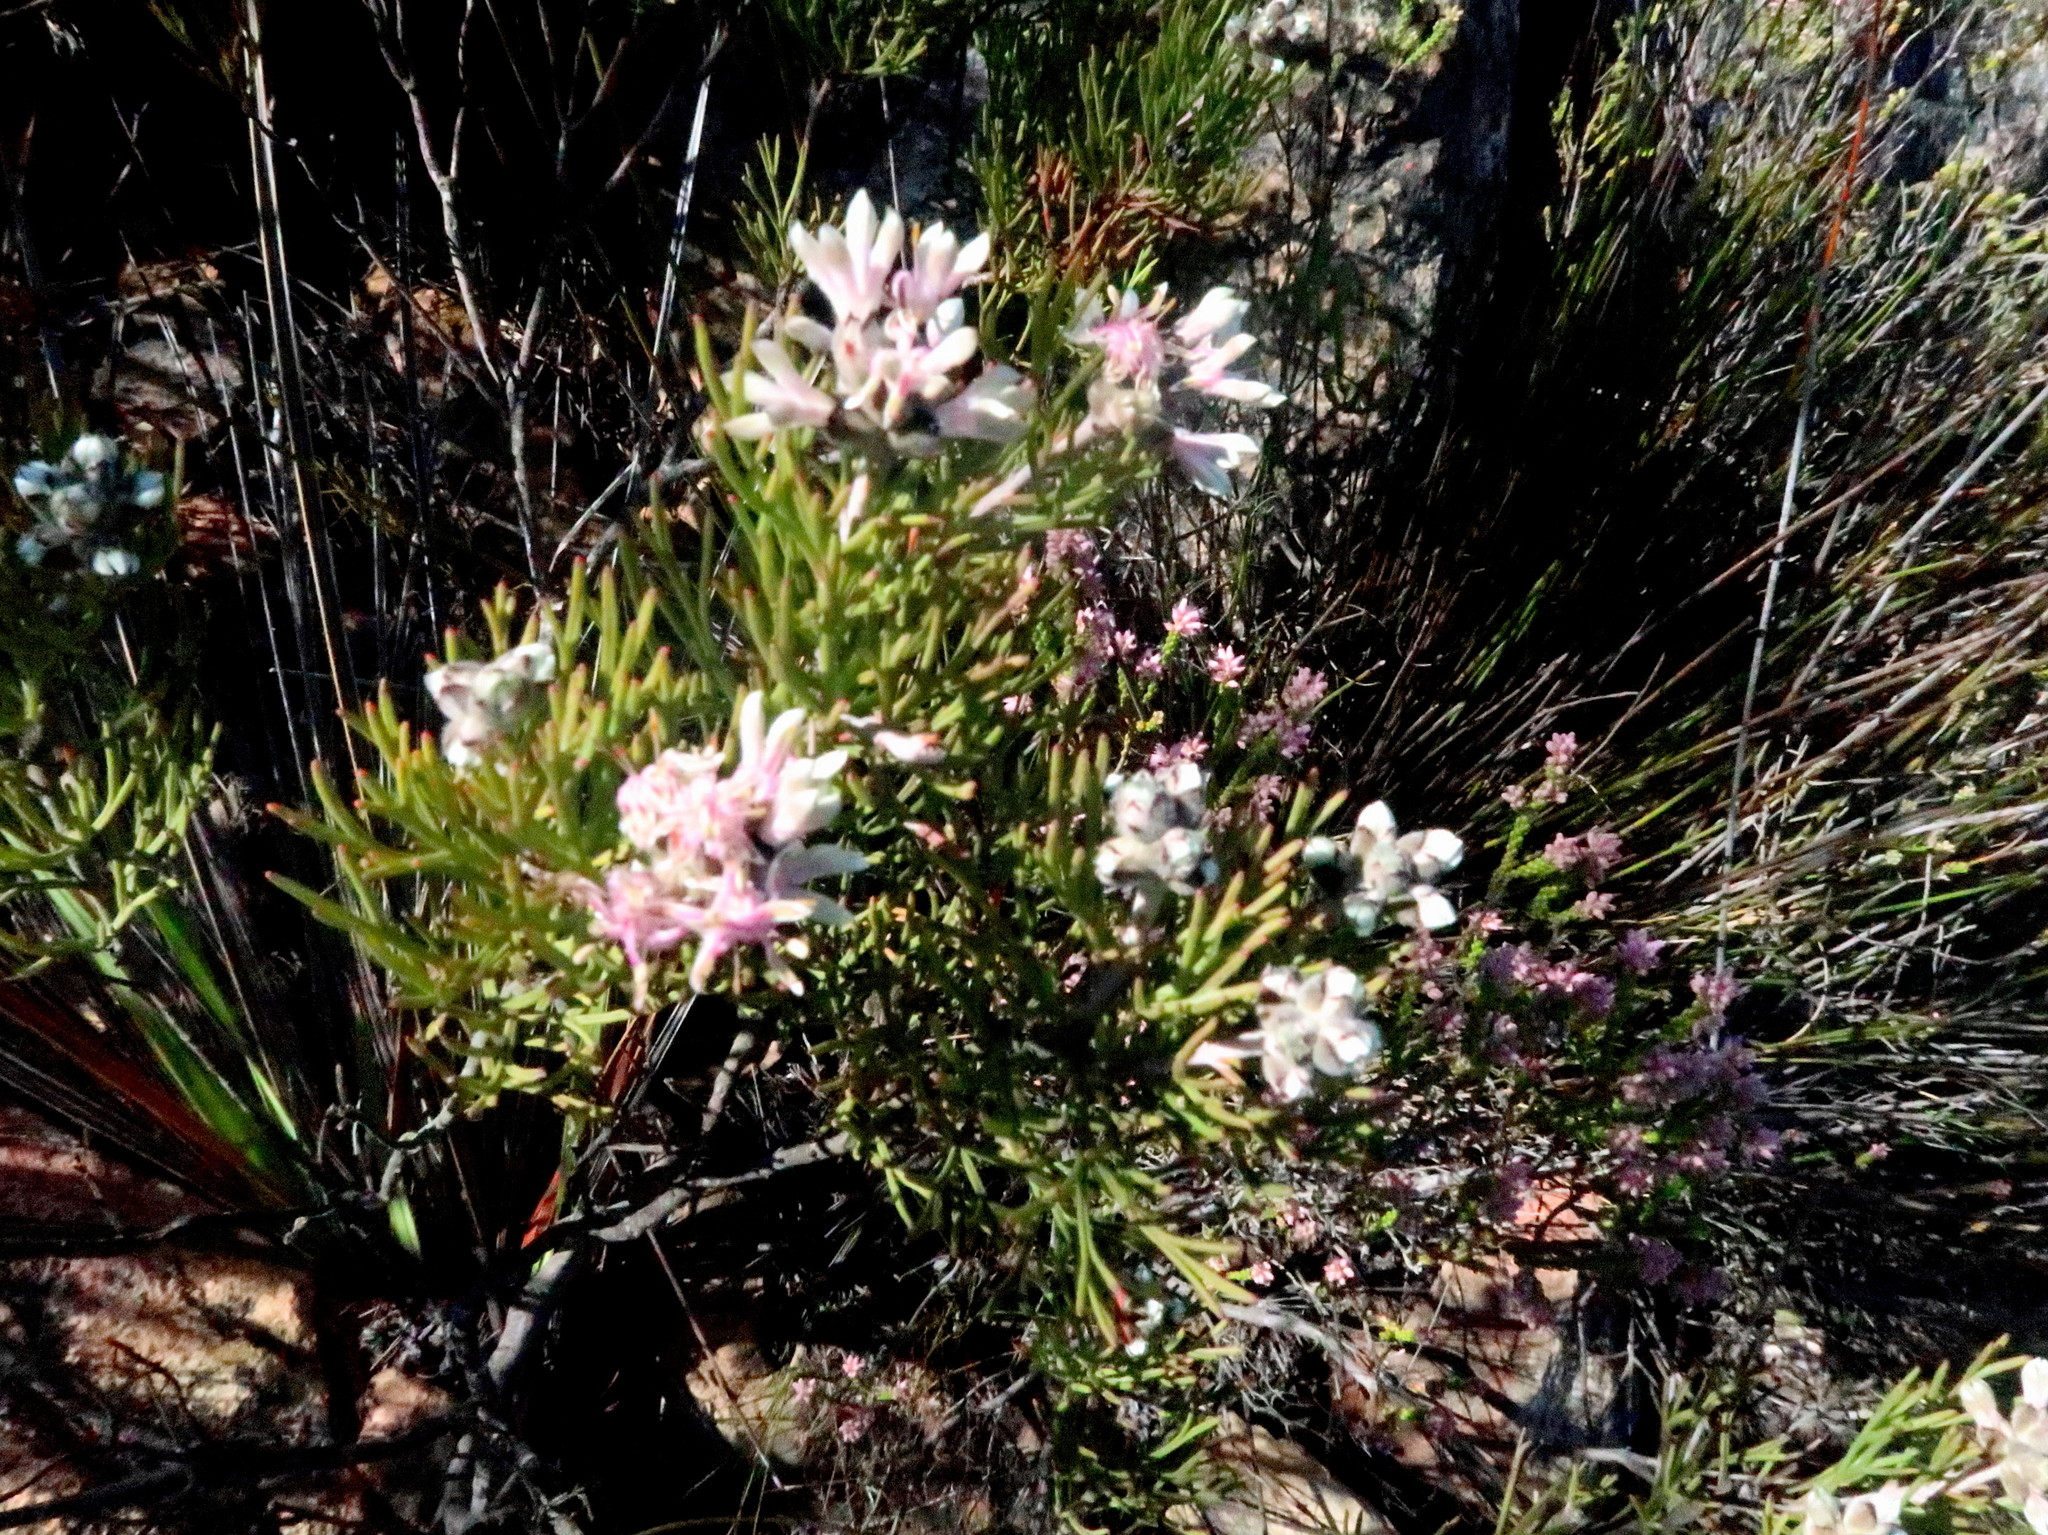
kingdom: Plantae
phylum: Tracheophyta
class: Magnoliopsida
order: Proteales
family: Proteaceae
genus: Paranomus
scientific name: Paranomus dregei
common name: Scented sceptre
